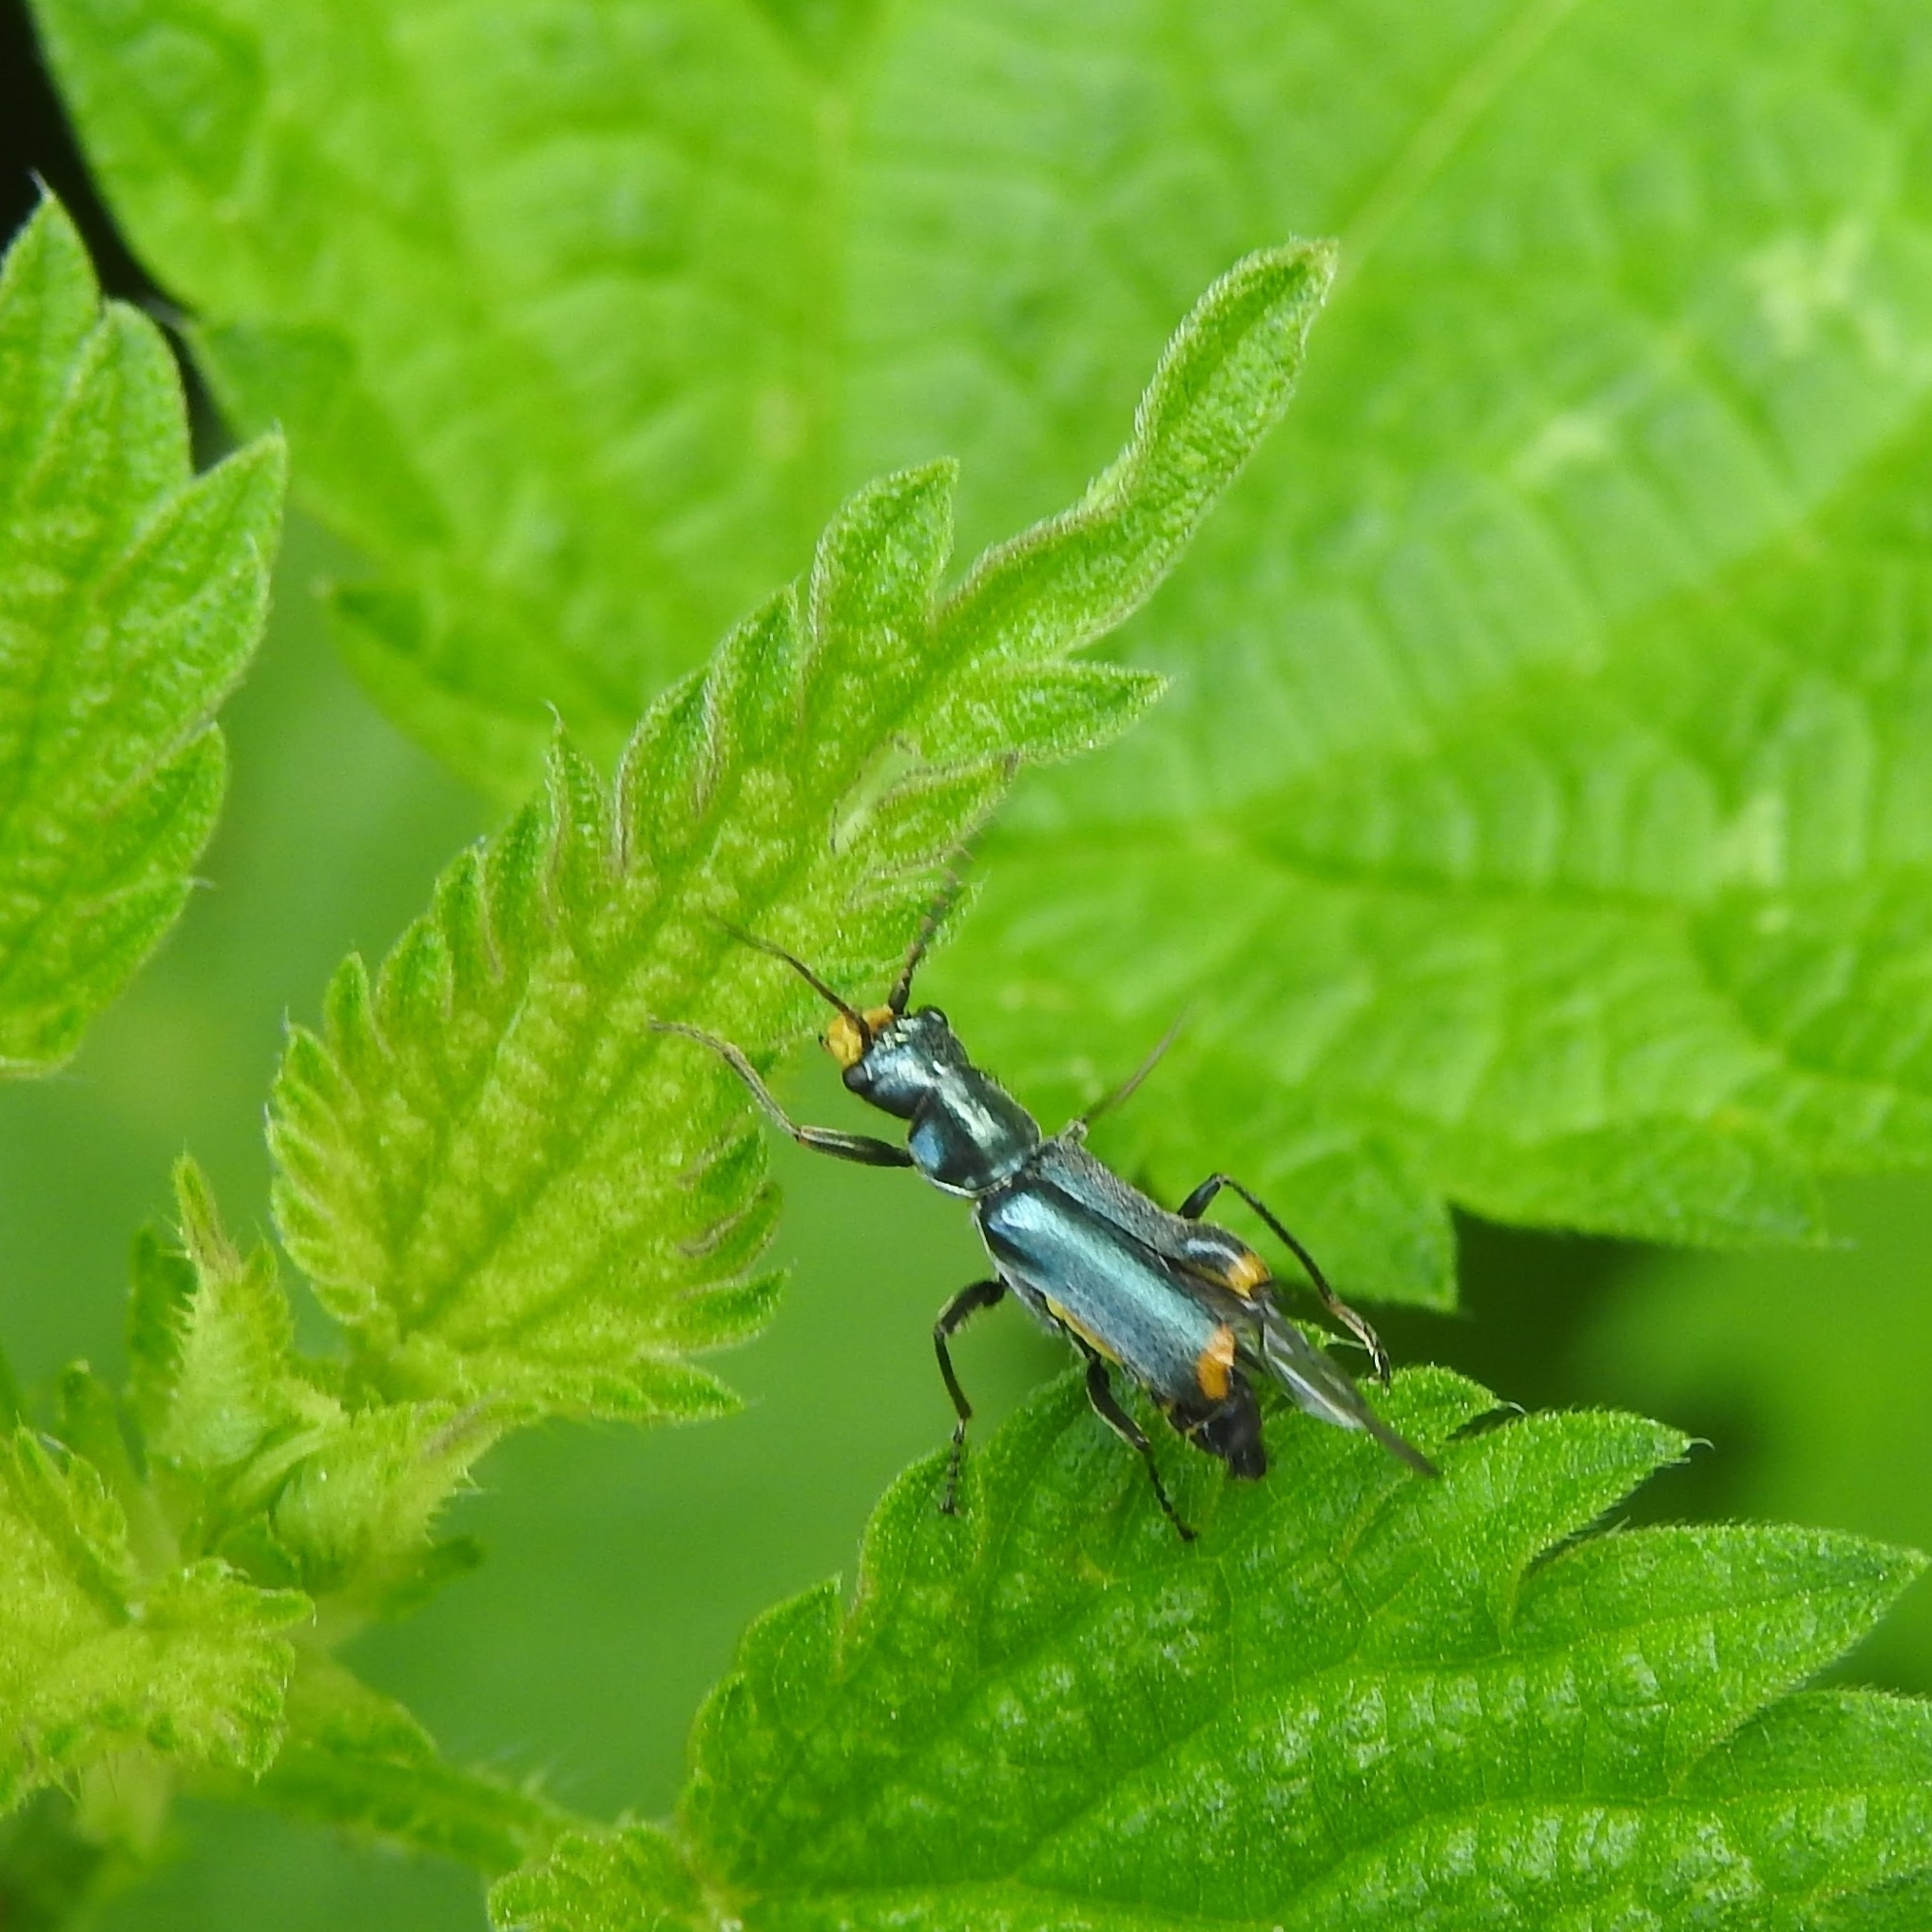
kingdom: Animalia
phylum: Arthropoda
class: Insecta
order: Coleoptera
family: Malachiidae
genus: Clanoptilus
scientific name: Clanoptilus marginellus
